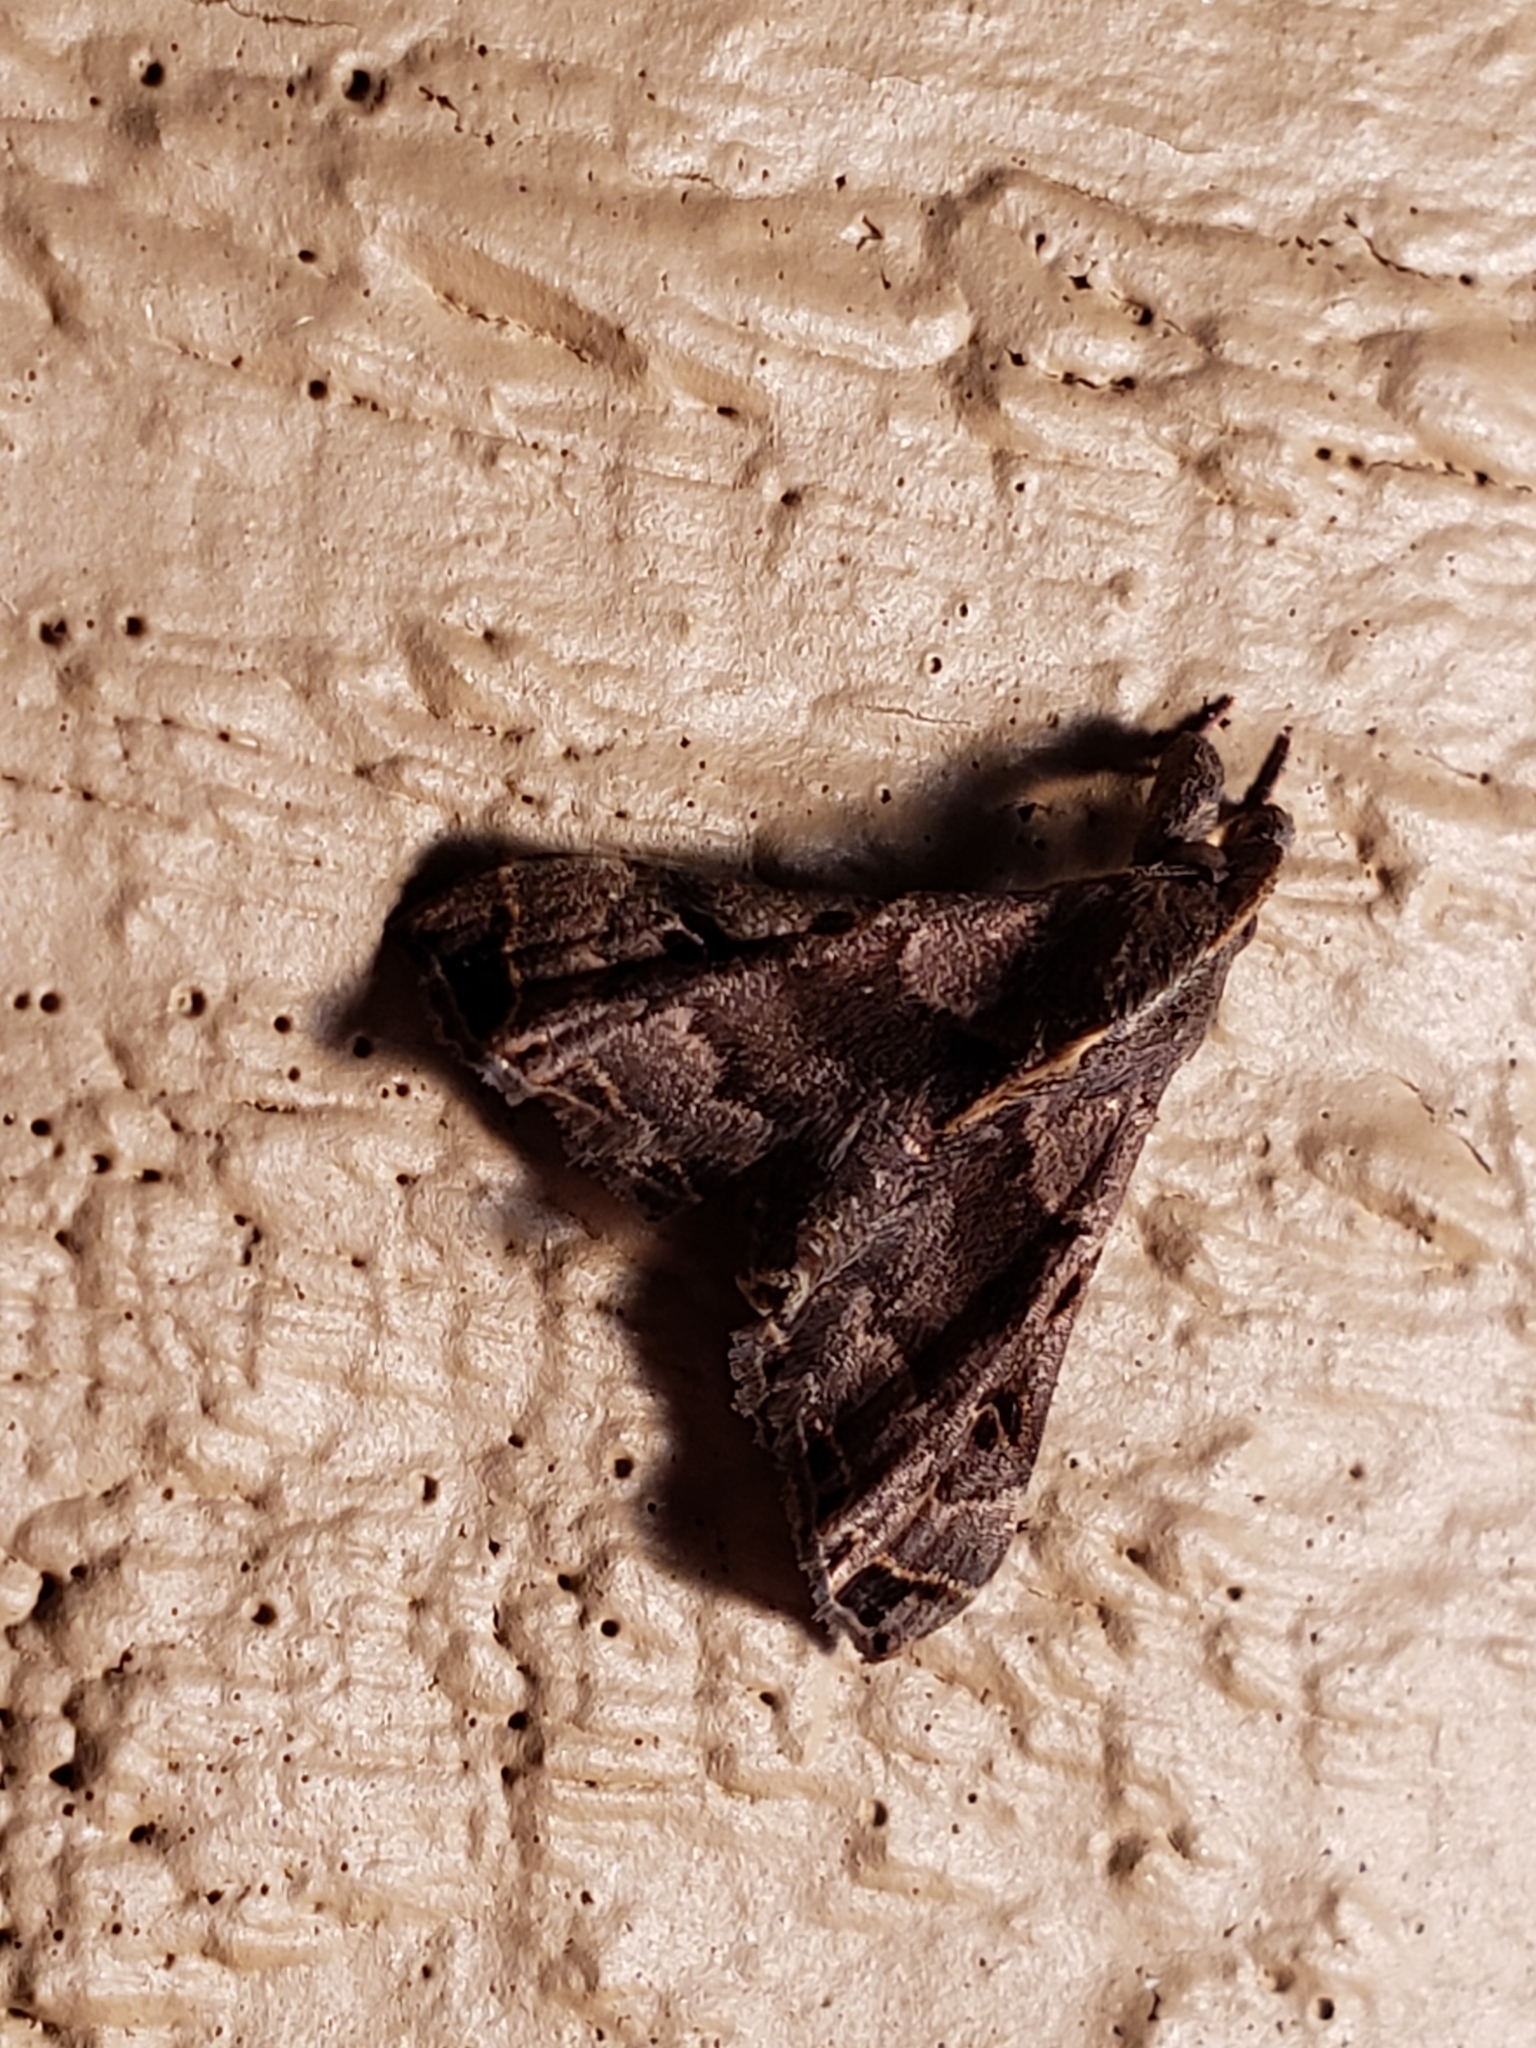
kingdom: Animalia
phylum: Arthropoda
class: Insecta
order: Lepidoptera
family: Erebidae
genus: Palthis
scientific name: Palthis asopialis
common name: Faint-spotted palthis moth
